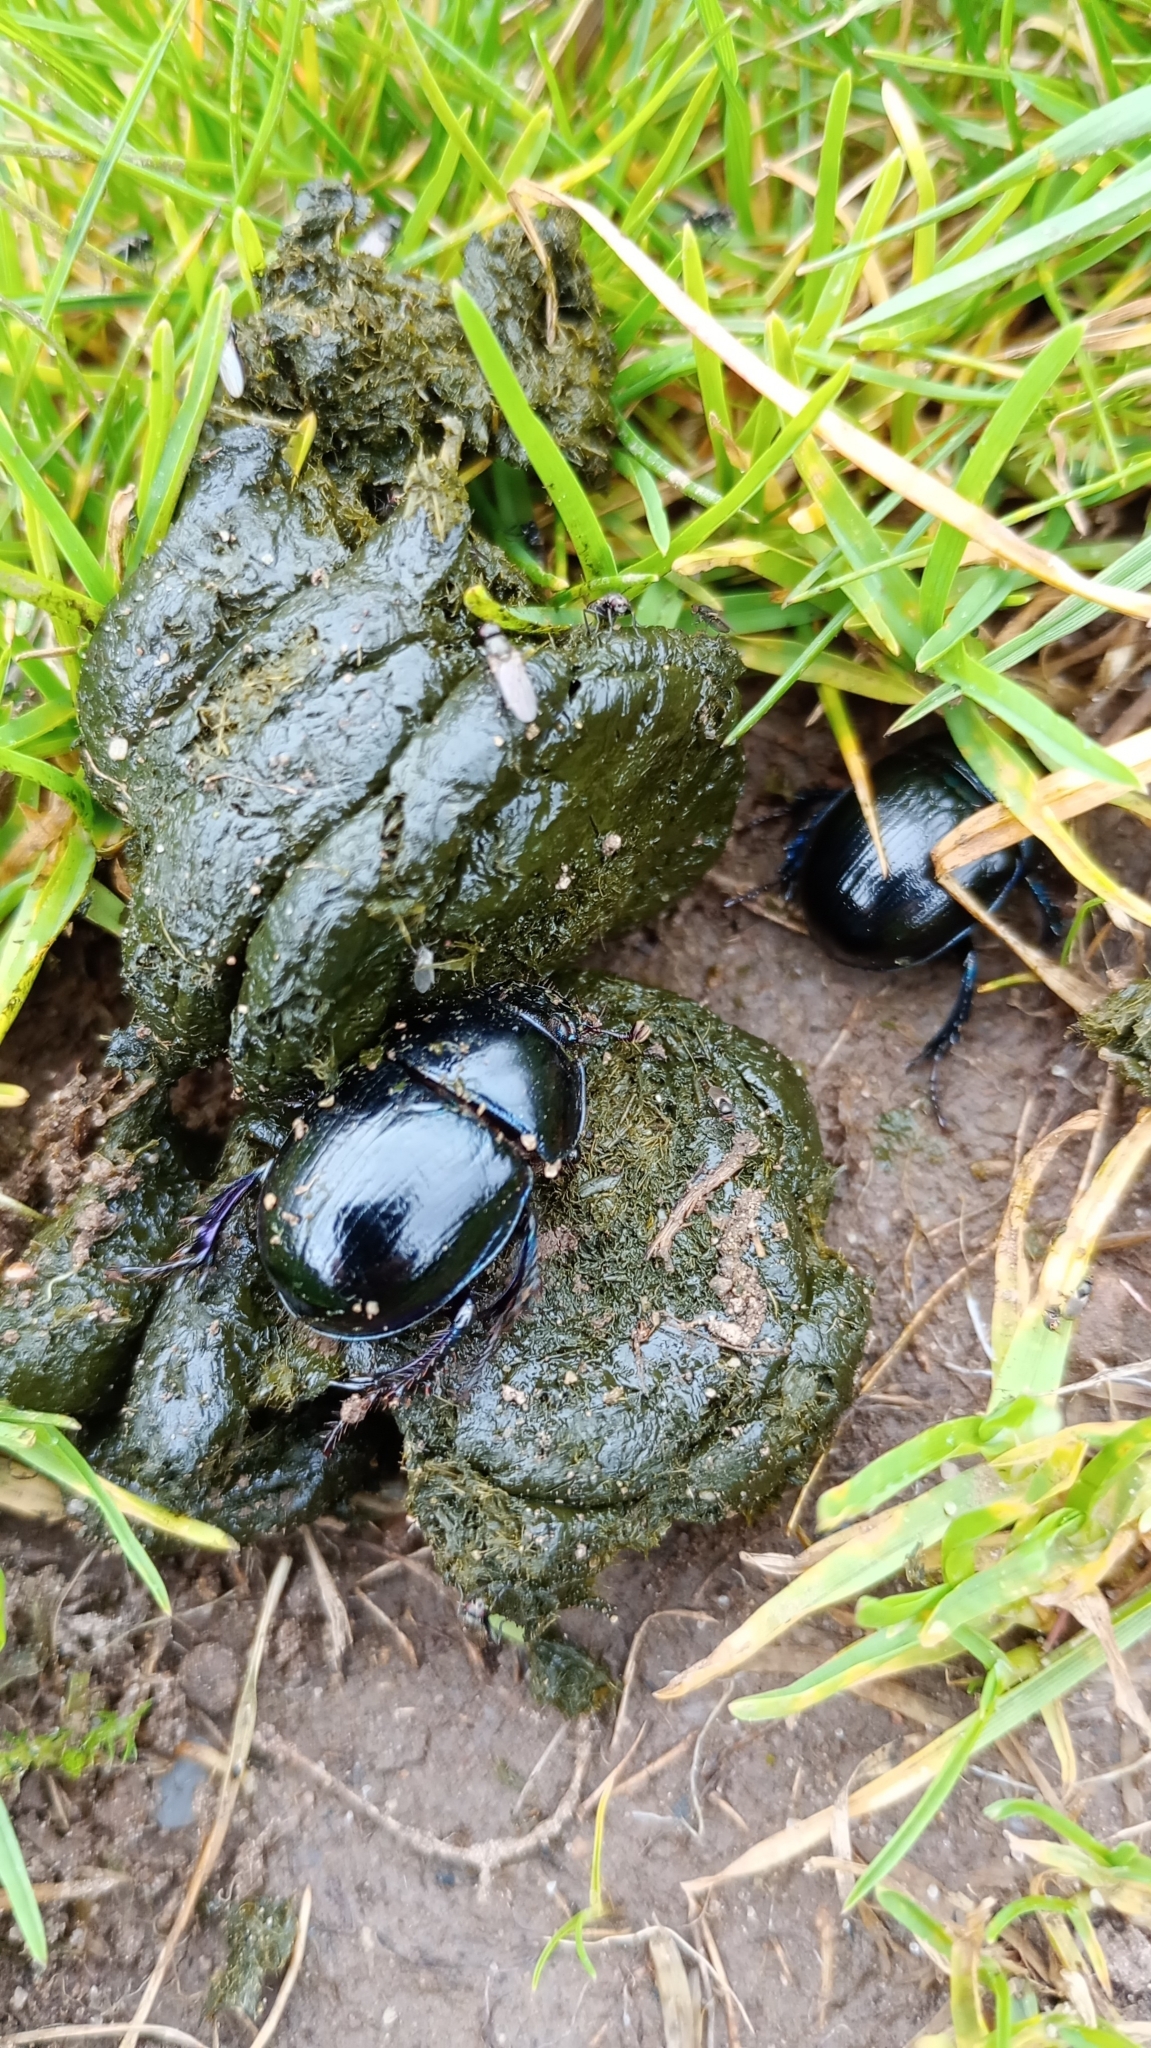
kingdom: Animalia
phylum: Arthropoda
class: Insecta
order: Coleoptera
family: Geotrupidae
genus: Anoplotrupes
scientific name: Anoplotrupes stercorosus
